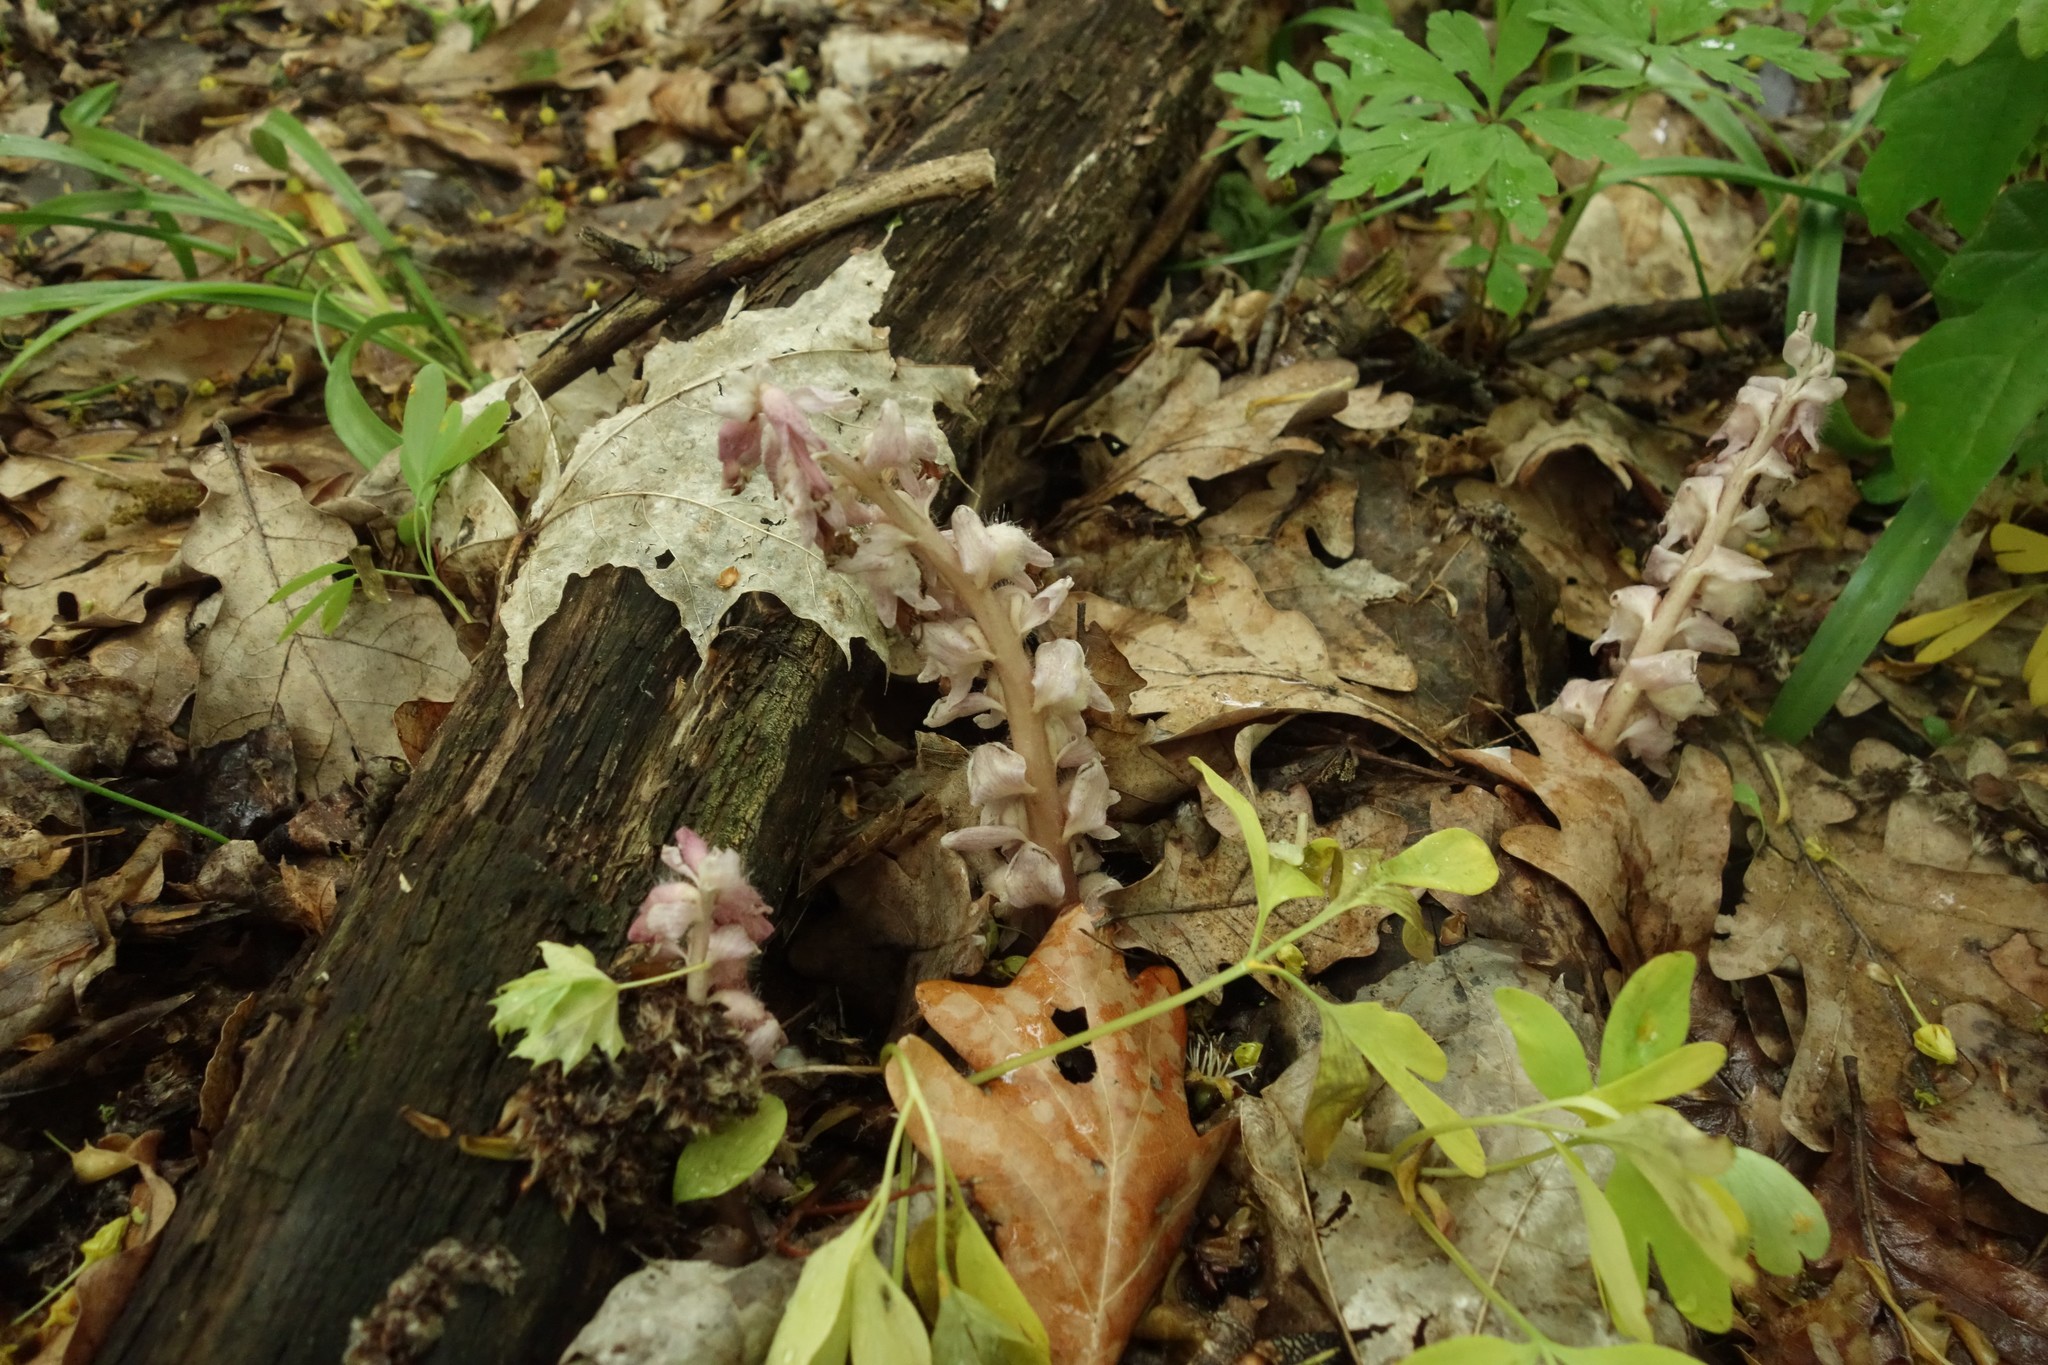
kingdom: Plantae
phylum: Tracheophyta
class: Magnoliopsida
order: Lamiales
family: Orobanchaceae
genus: Lathraea
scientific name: Lathraea squamaria
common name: Toothwort
